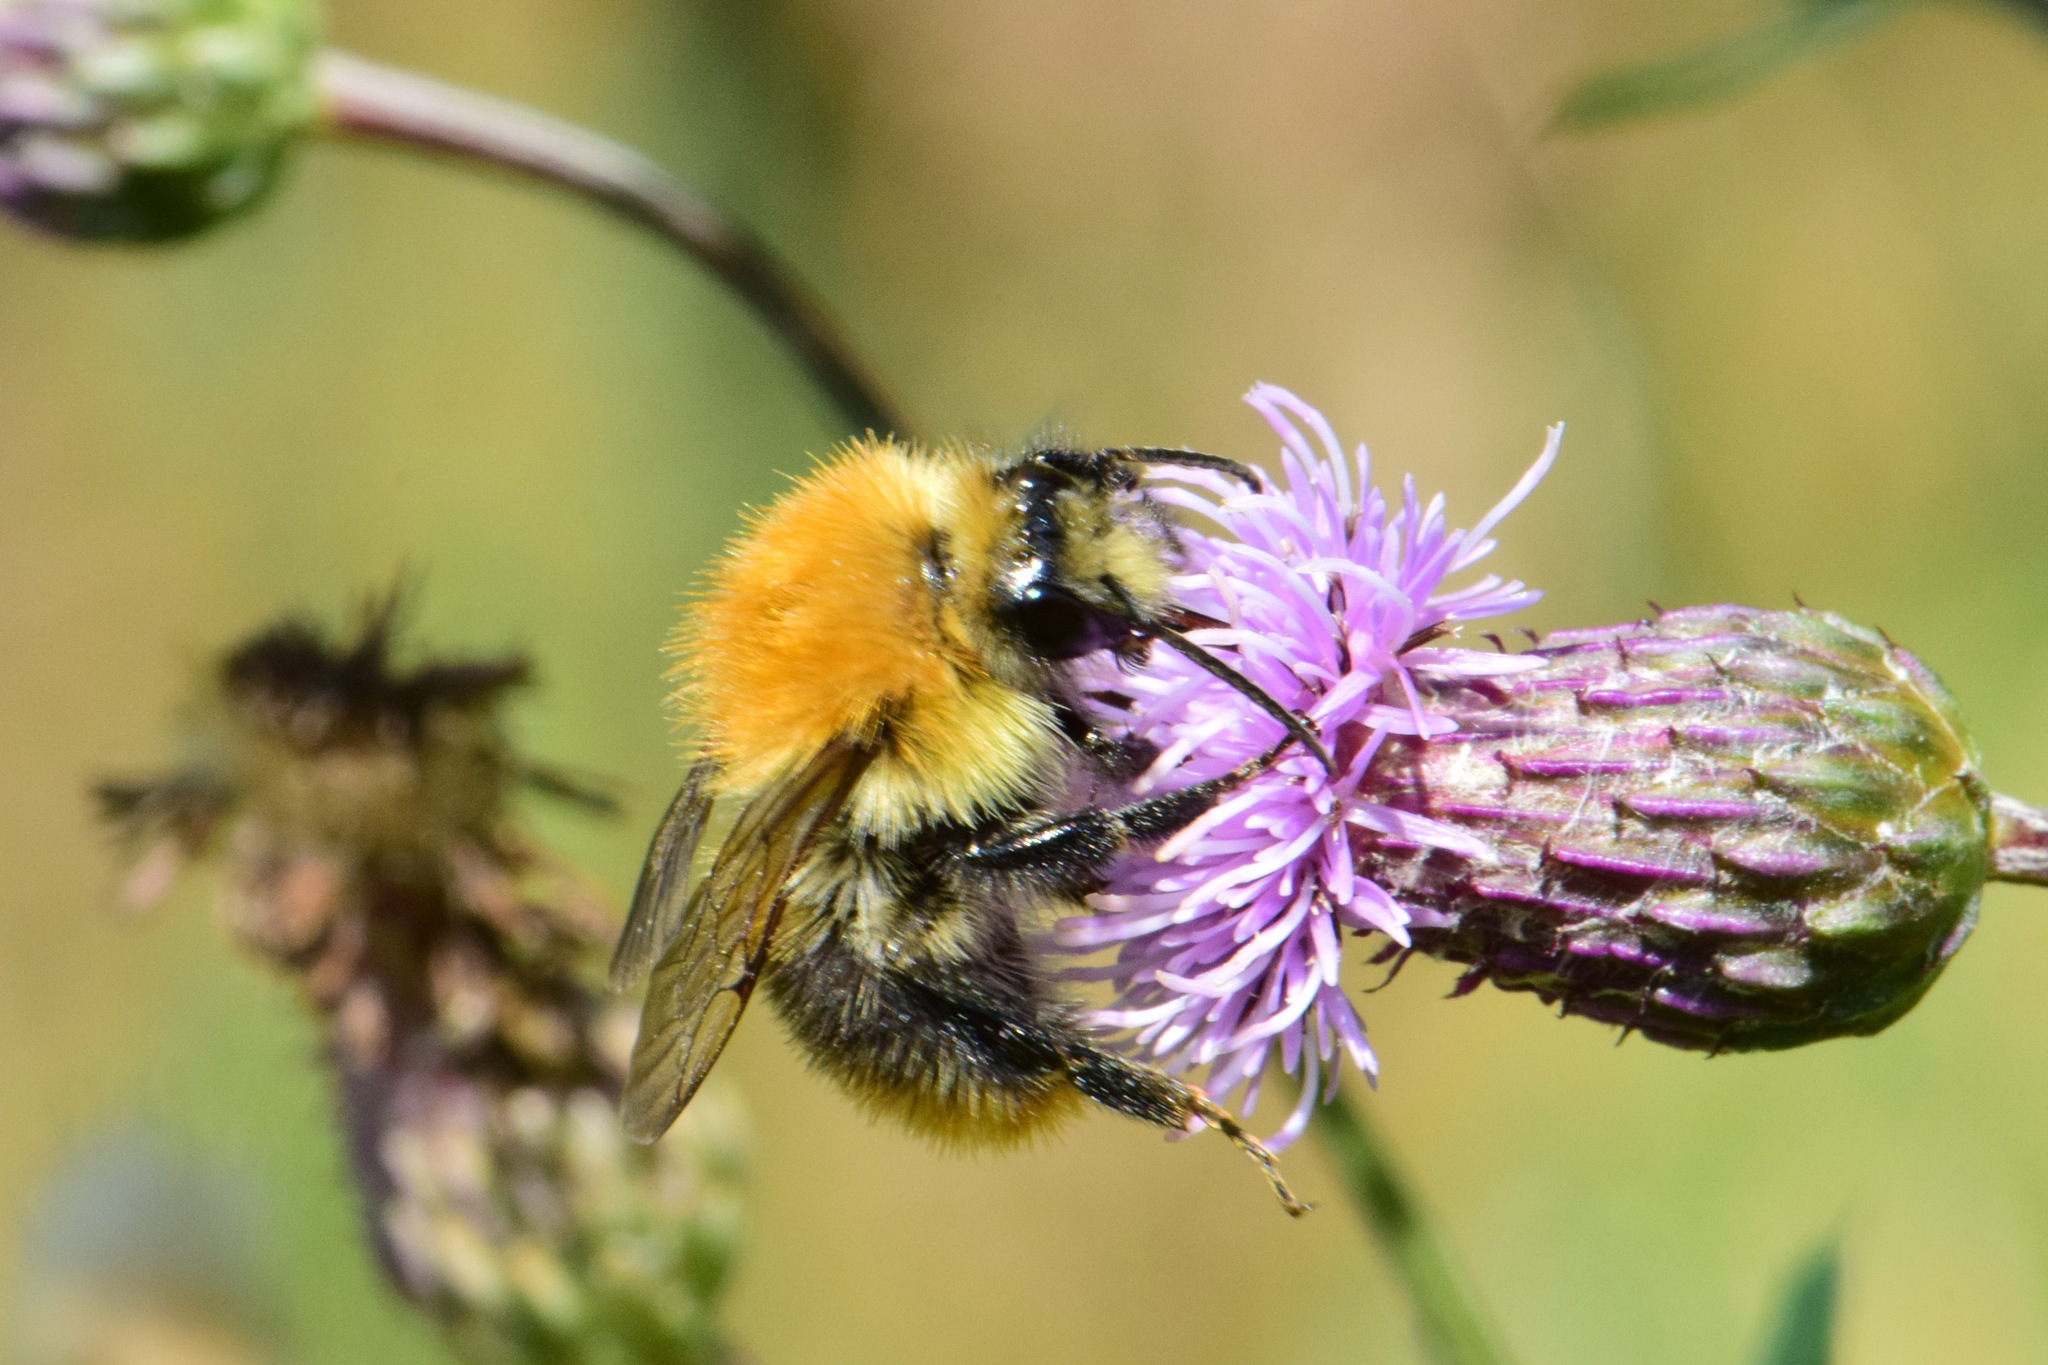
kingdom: Animalia
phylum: Arthropoda
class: Insecta
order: Hymenoptera
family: Apidae
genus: Bombus
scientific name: Bombus pascuorum
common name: Common carder bee
